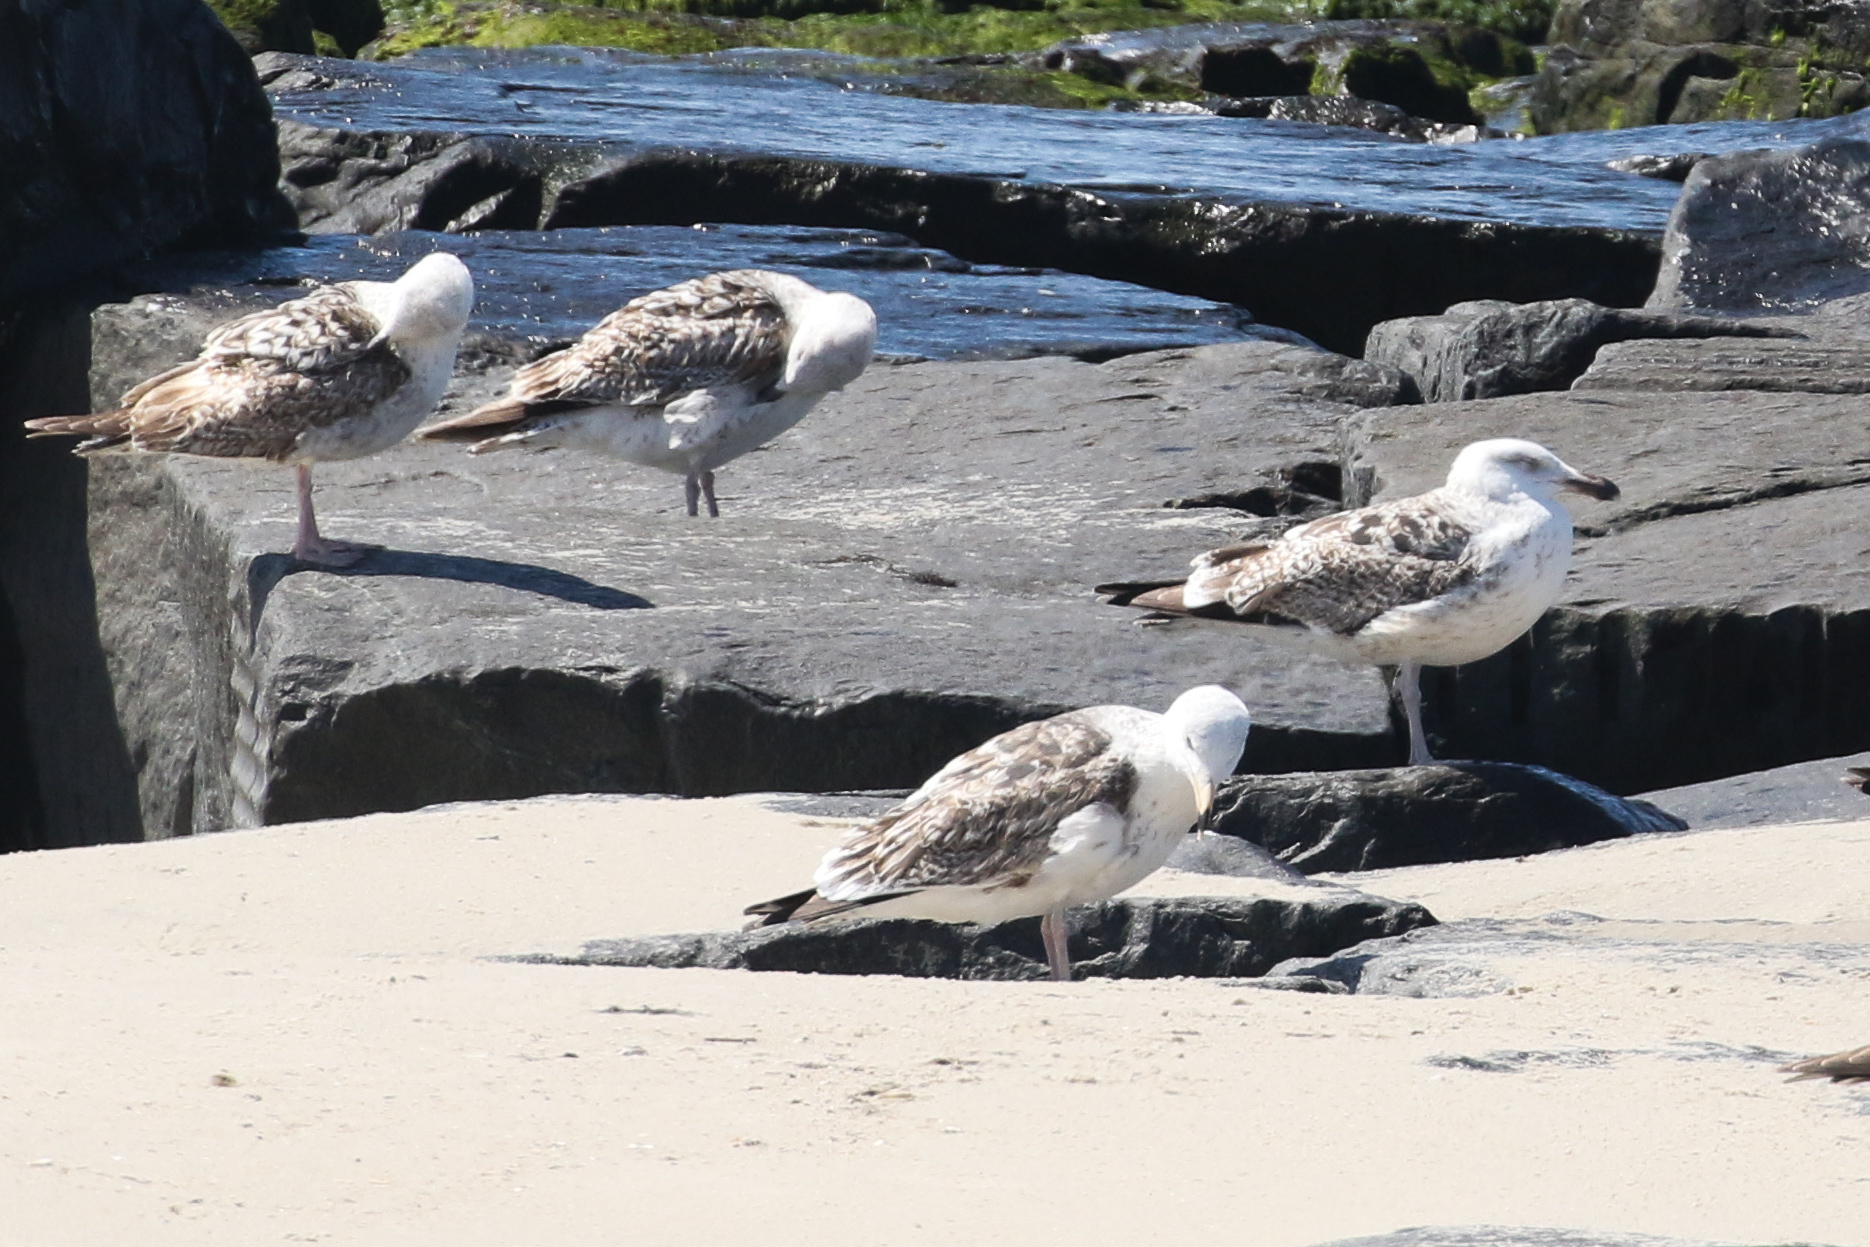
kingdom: Animalia
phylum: Chordata
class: Aves
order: Charadriiformes
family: Laridae
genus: Larus
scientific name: Larus marinus
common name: Great black-backed gull
